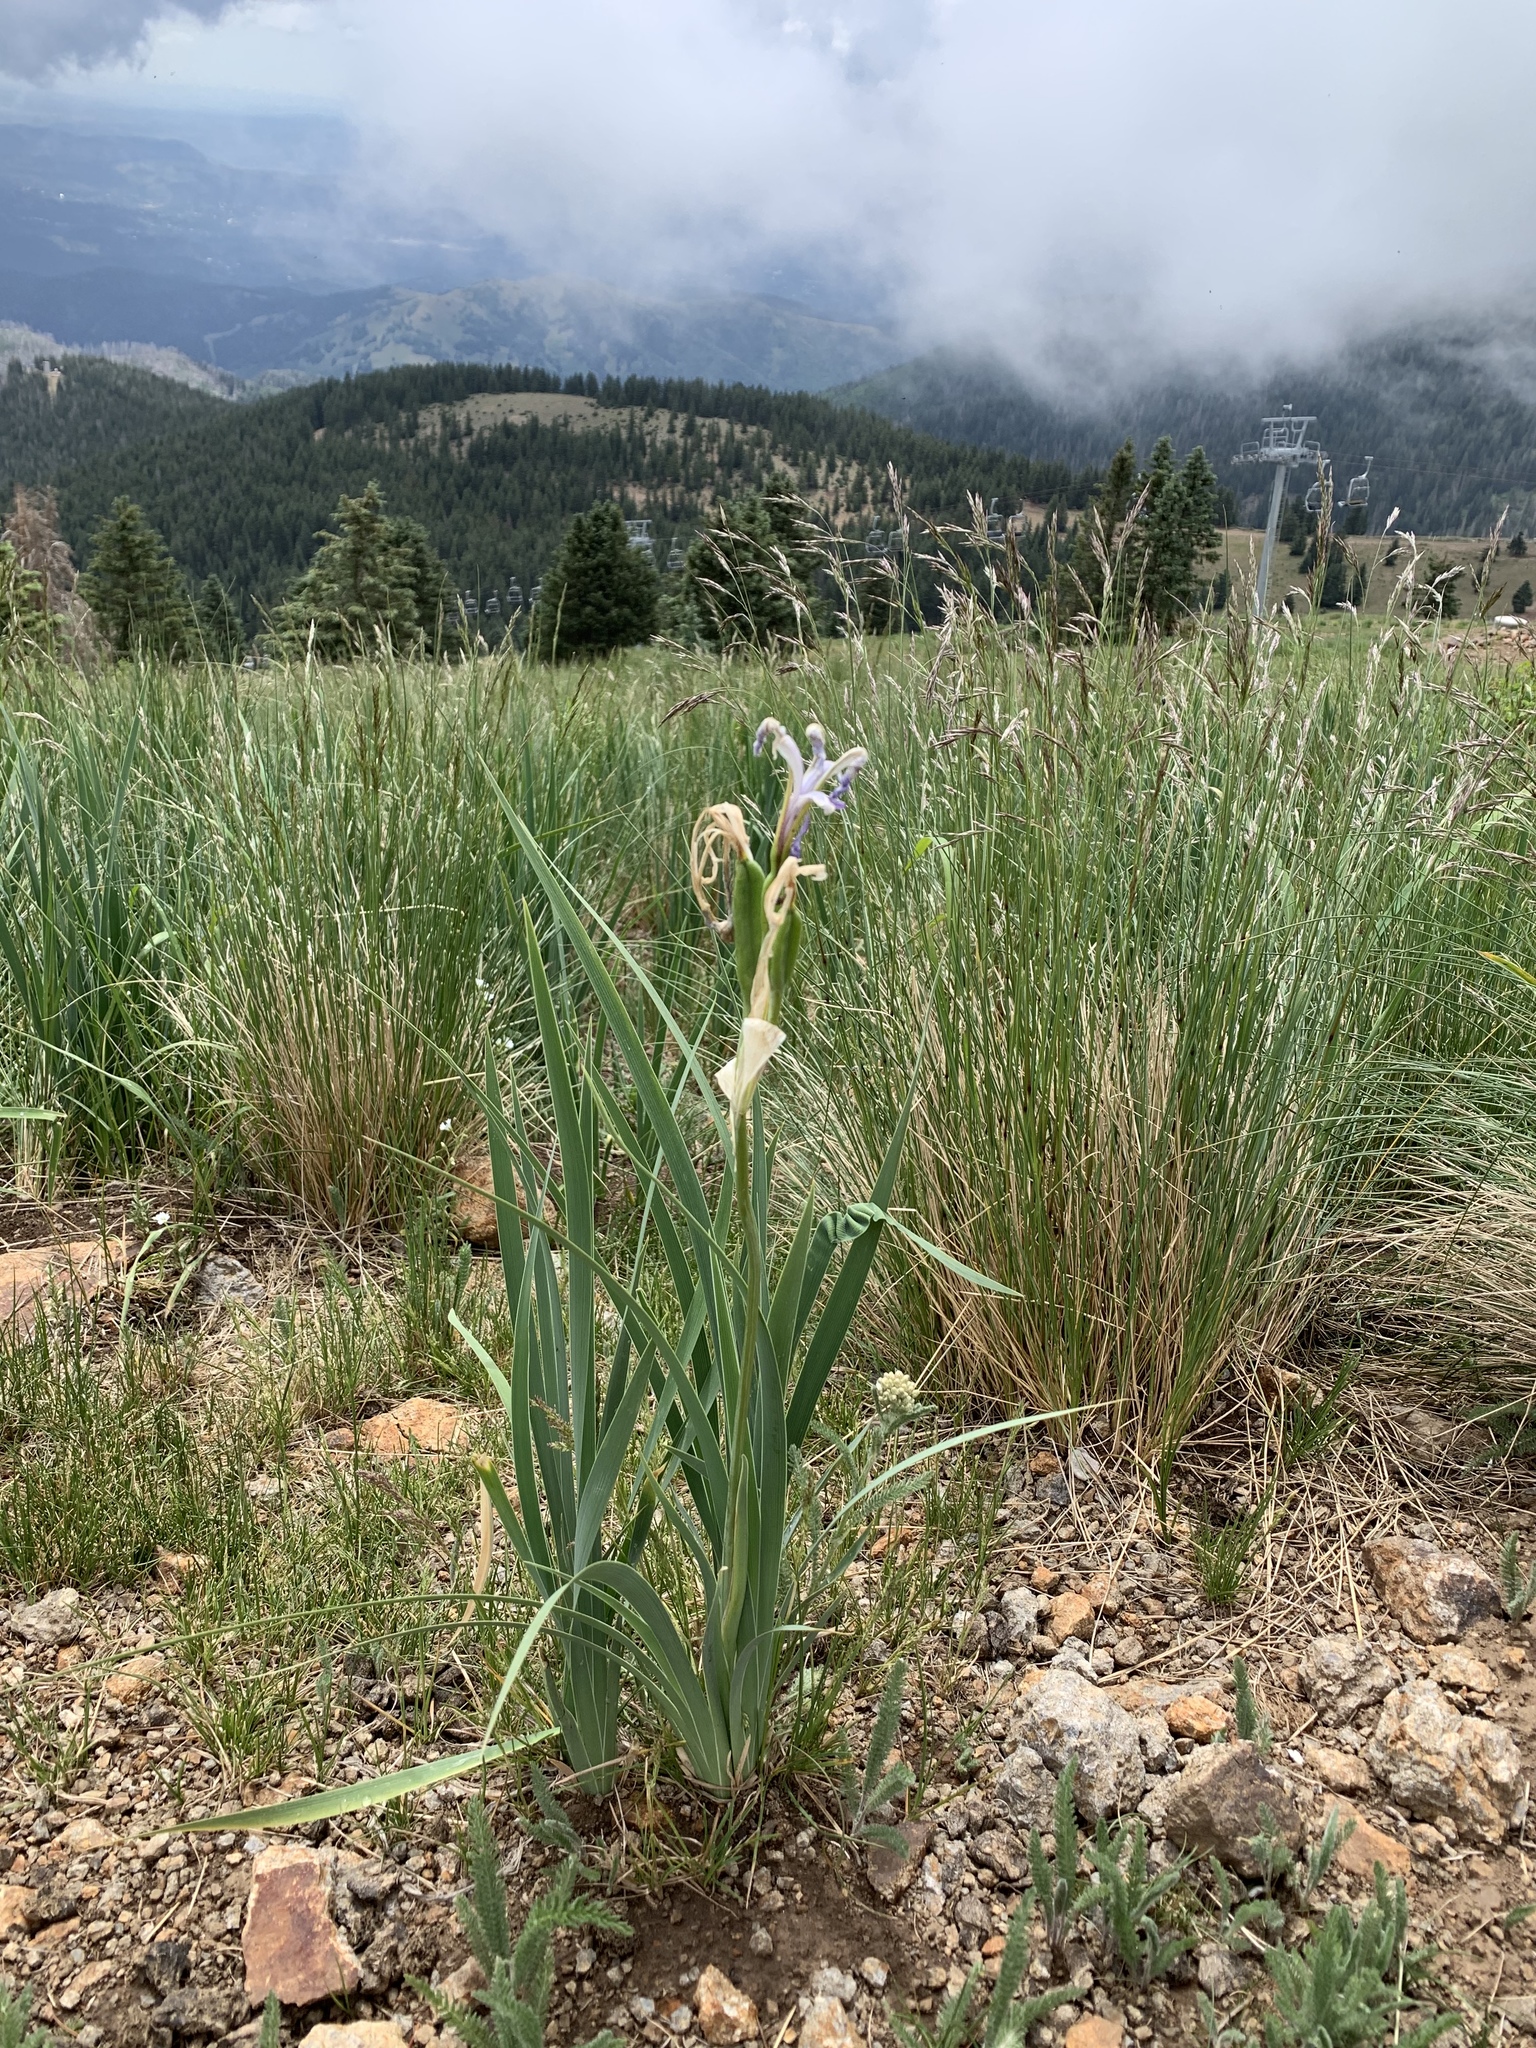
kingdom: Plantae
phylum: Tracheophyta
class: Liliopsida
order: Asparagales
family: Iridaceae
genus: Iris
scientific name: Iris missouriensis
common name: Rocky mountain iris
